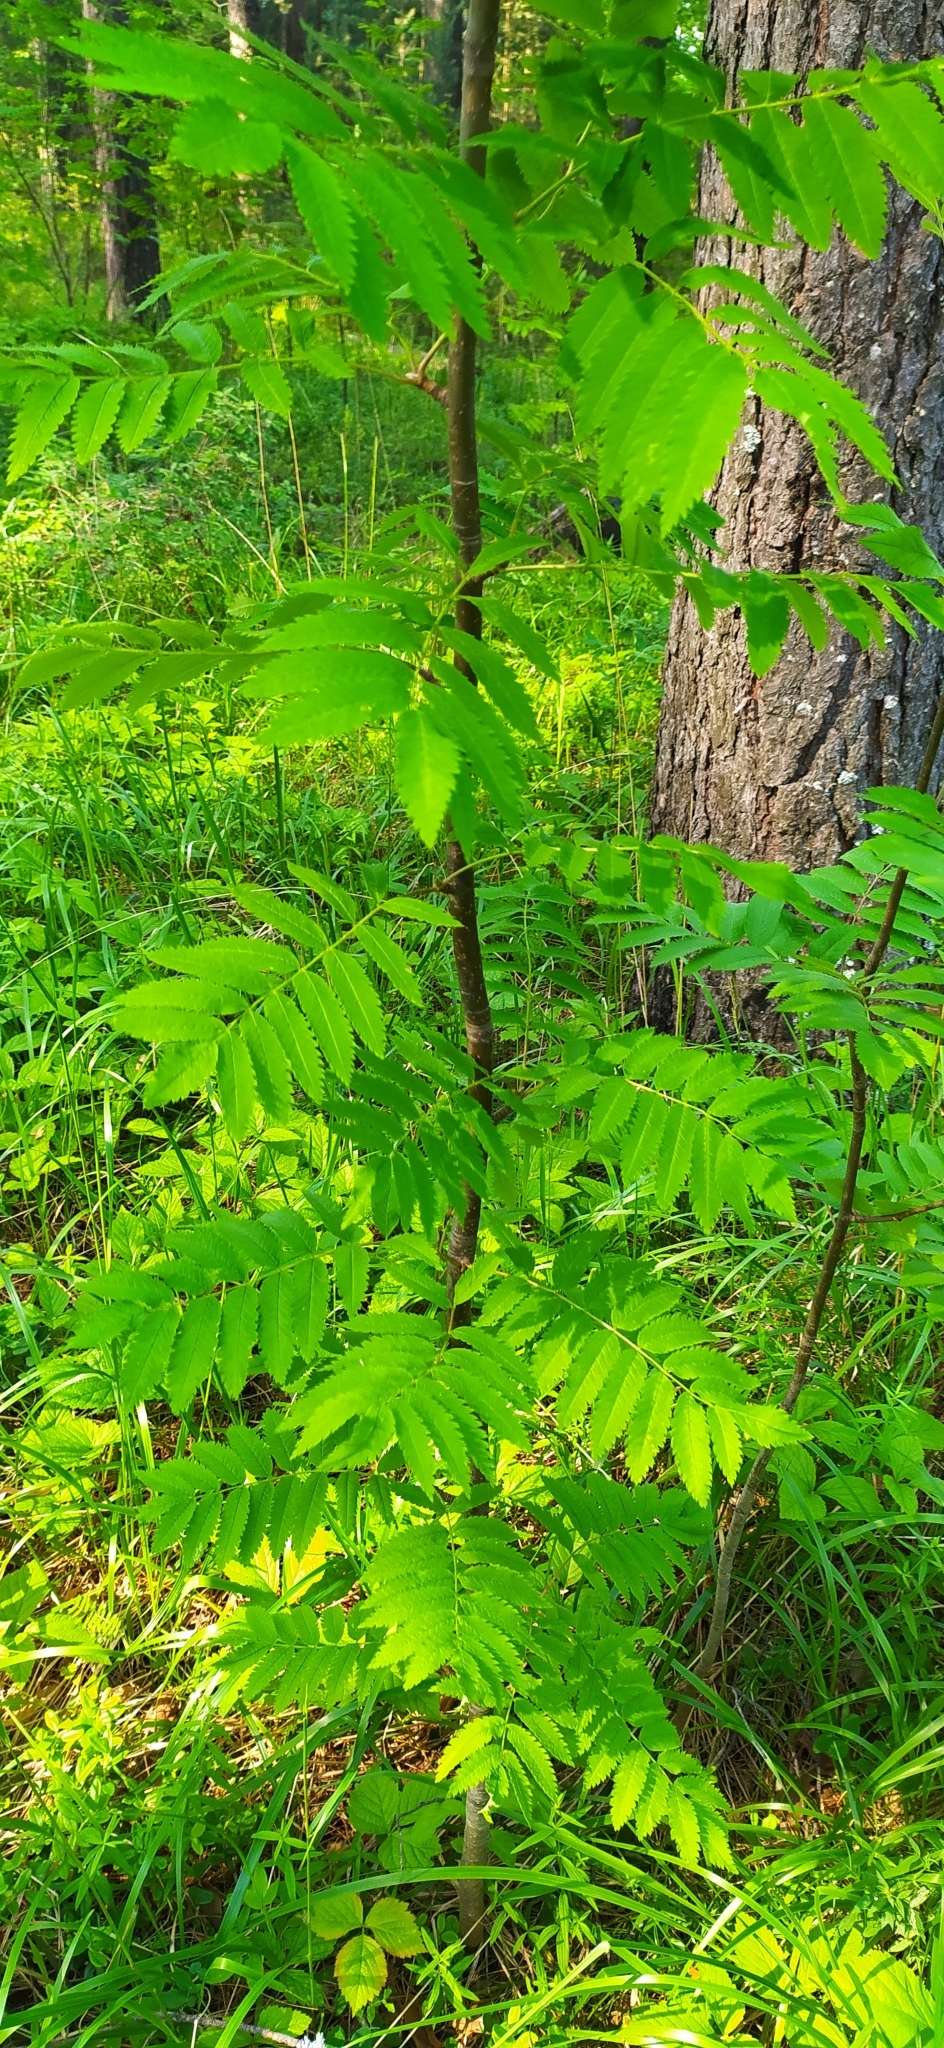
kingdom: Plantae
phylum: Tracheophyta
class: Magnoliopsida
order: Rosales
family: Rosaceae
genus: Sorbus
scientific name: Sorbus aucuparia
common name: Rowan
